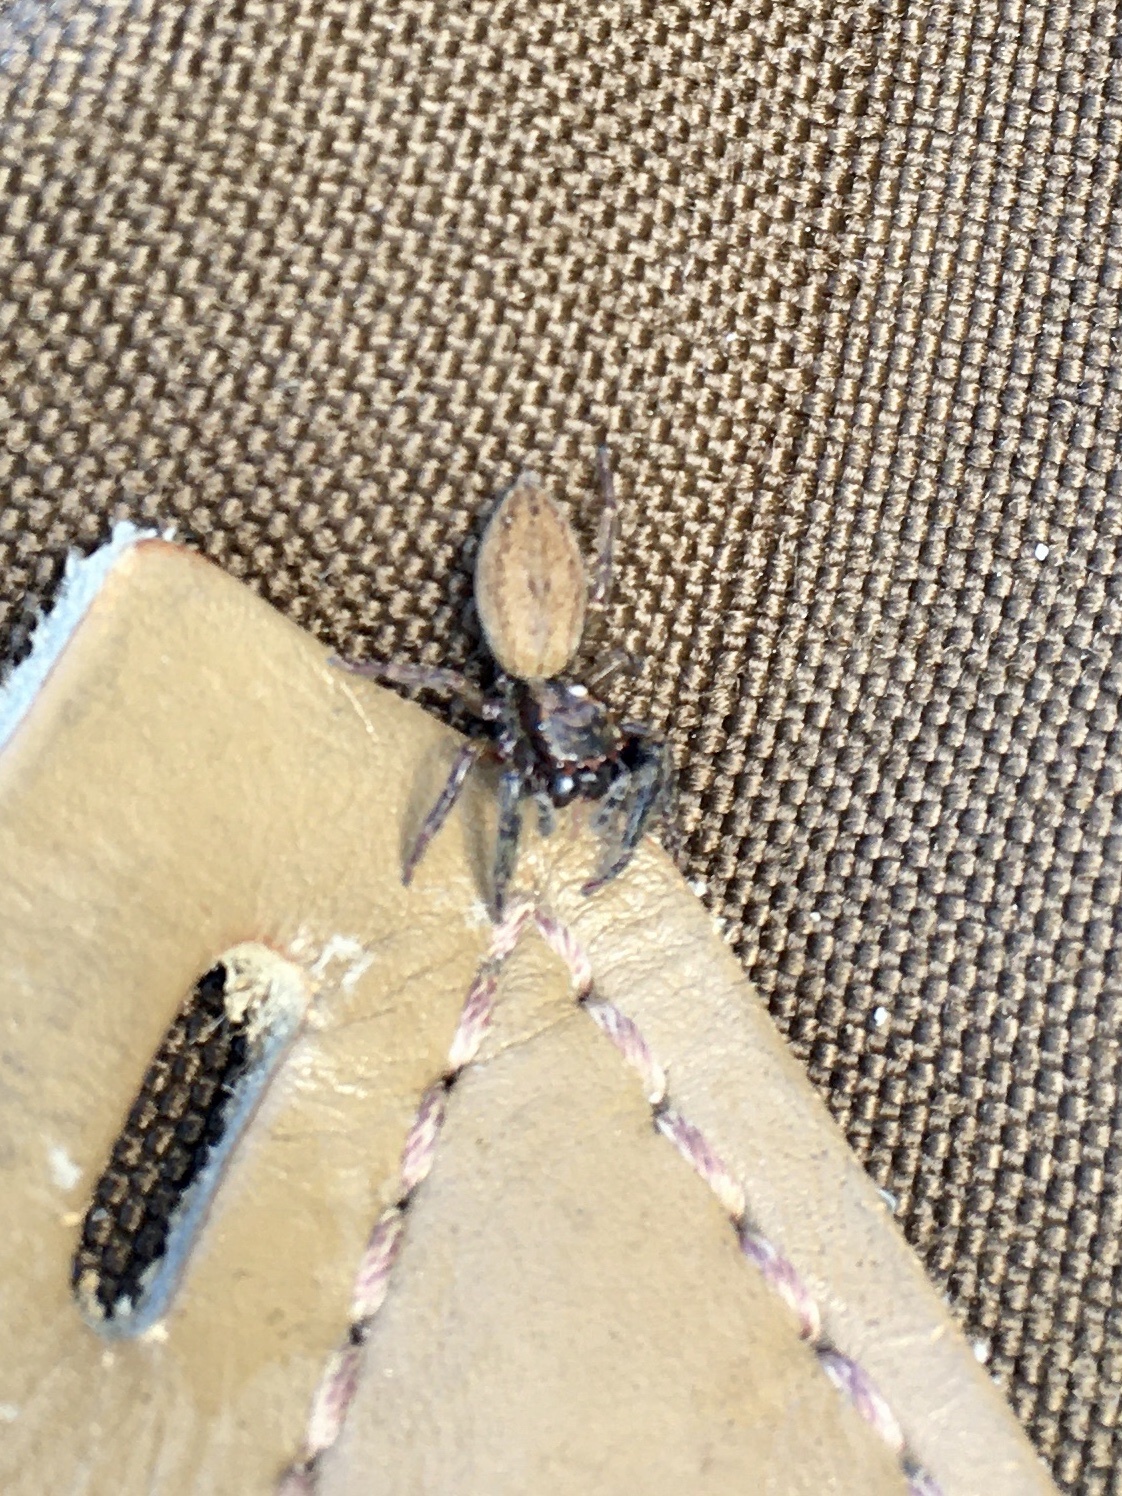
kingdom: Animalia
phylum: Arthropoda
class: Arachnida
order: Araneae
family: Salticidae
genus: Trite
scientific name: Trite auricoma
